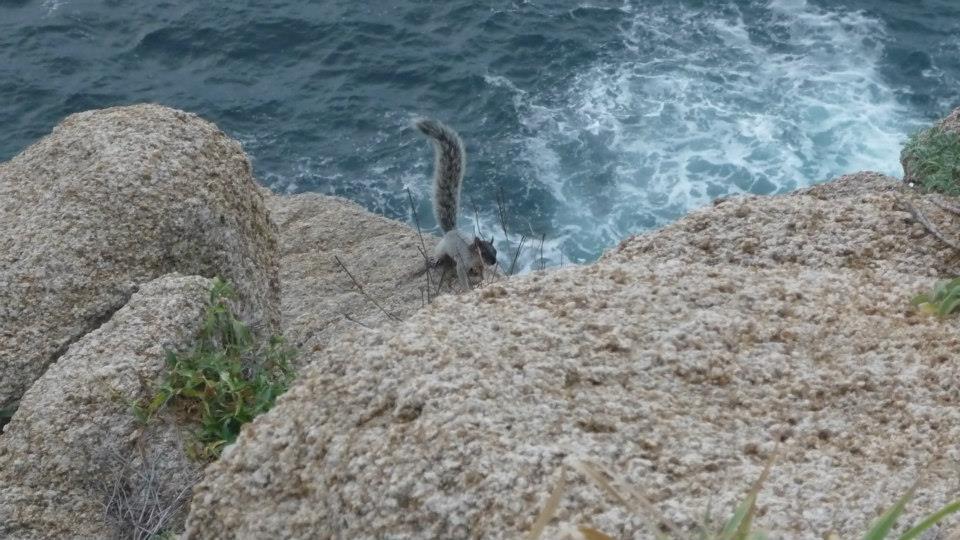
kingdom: Animalia
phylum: Chordata
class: Mammalia
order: Rodentia
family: Sciuridae
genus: Sciurus
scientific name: Sciurus aureogaster
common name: Red-bellied squirrel
